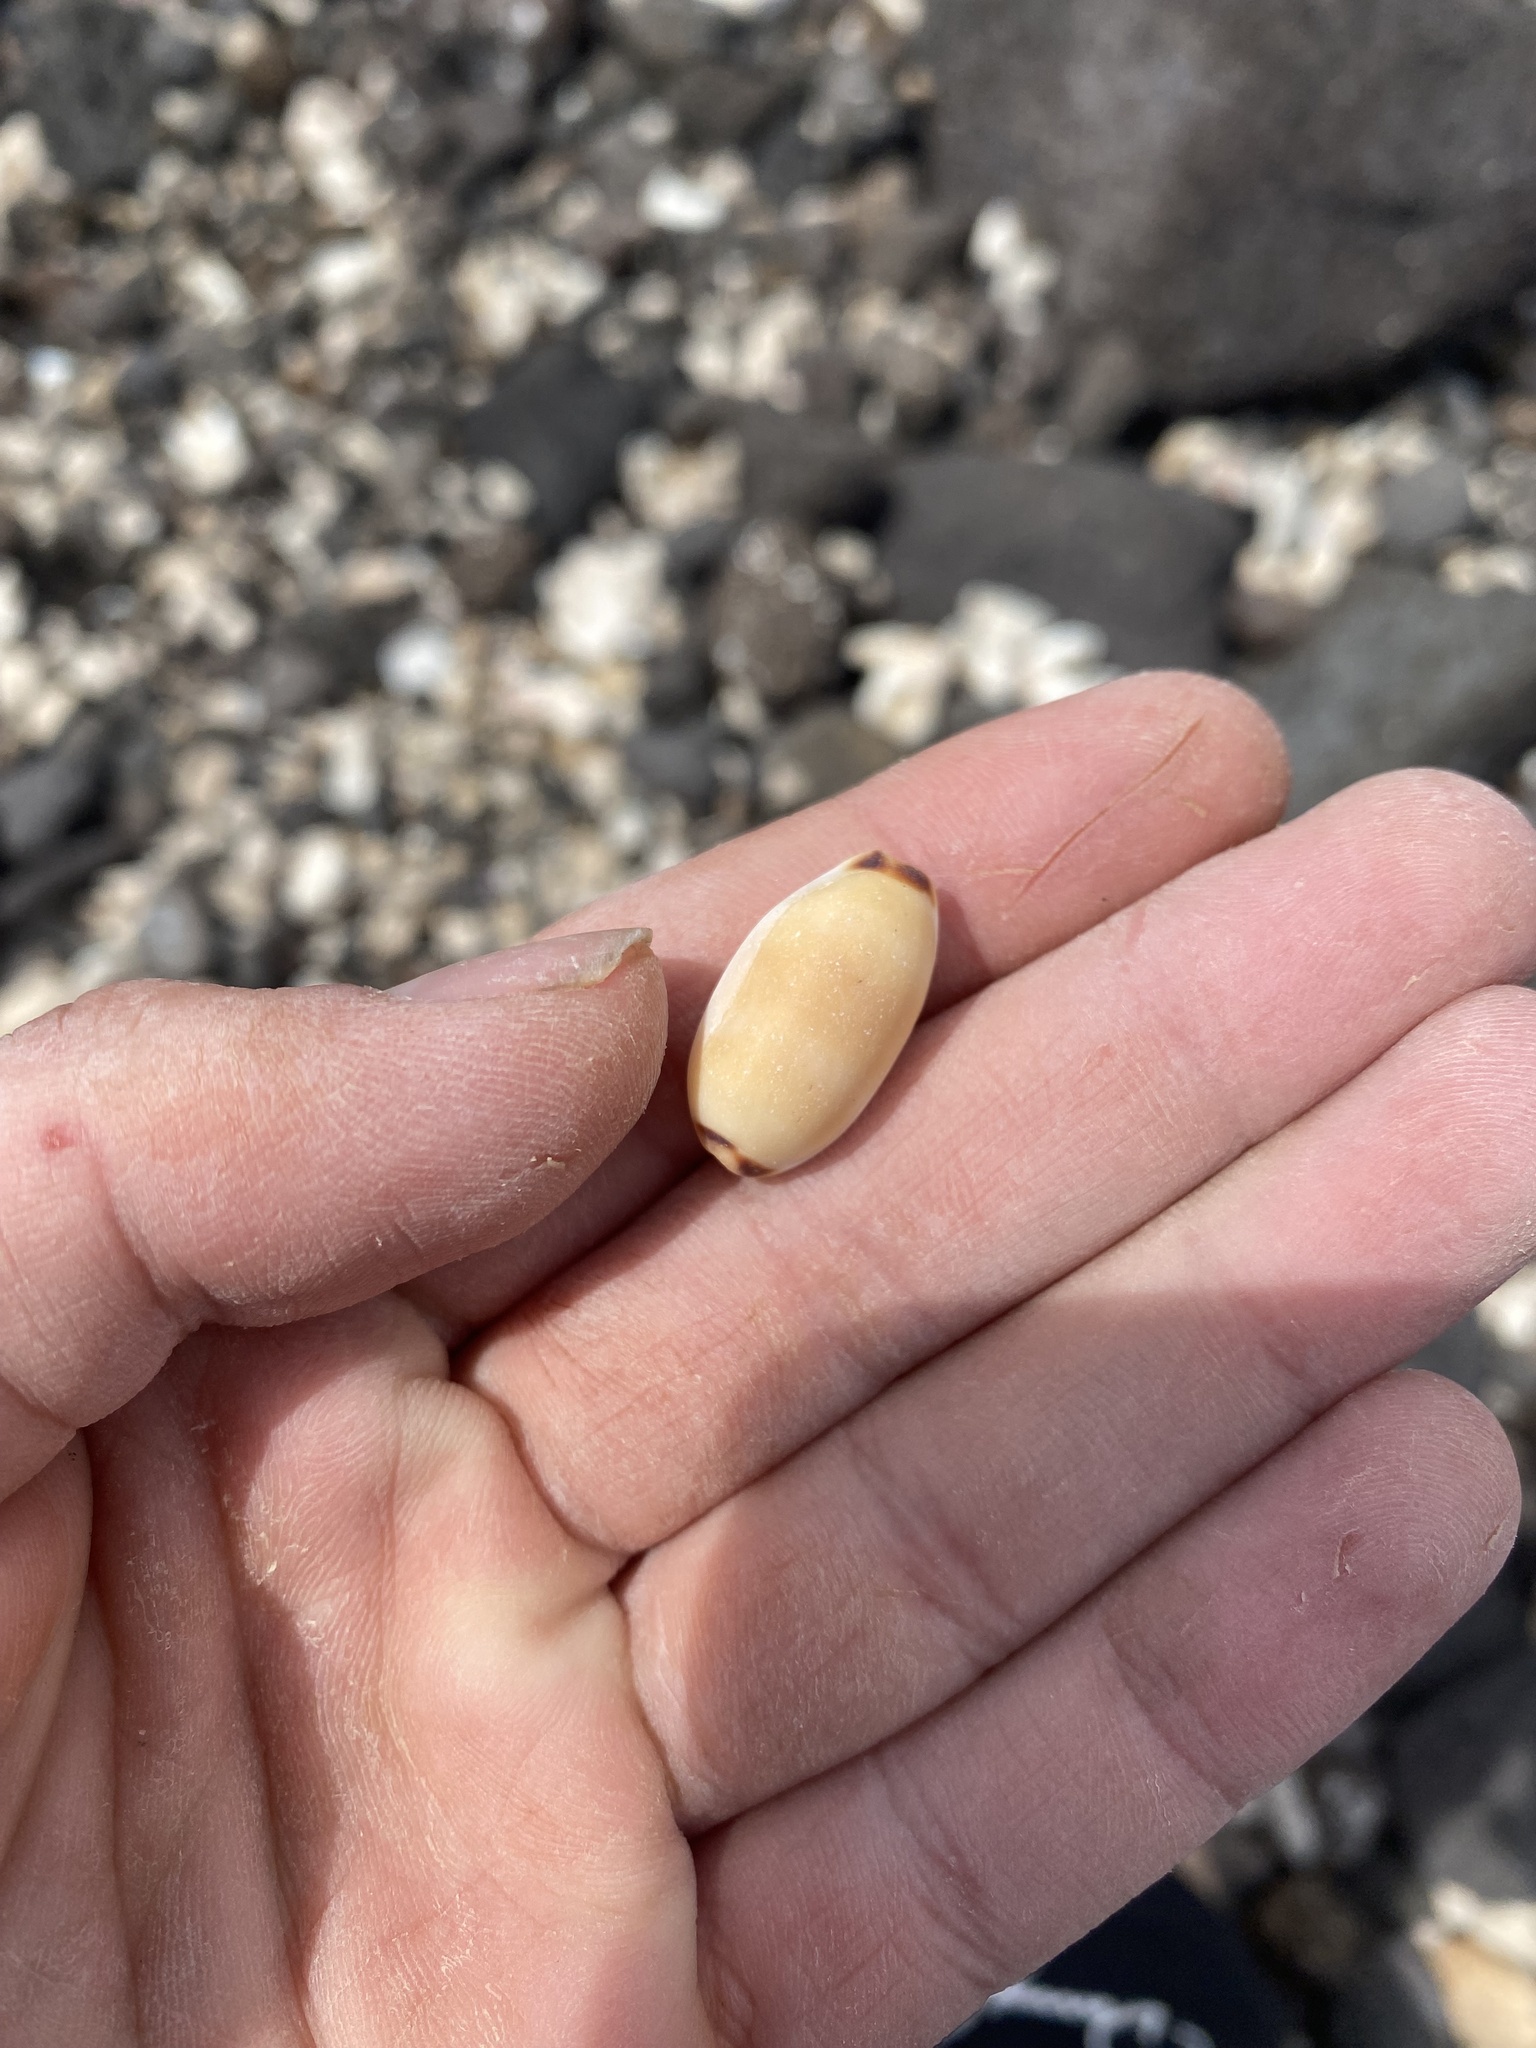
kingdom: Animalia
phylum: Mollusca
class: Gastropoda
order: Littorinimorpha
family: Cypraeidae
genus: Luria
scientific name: Luria isabella
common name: Isabell cowry
